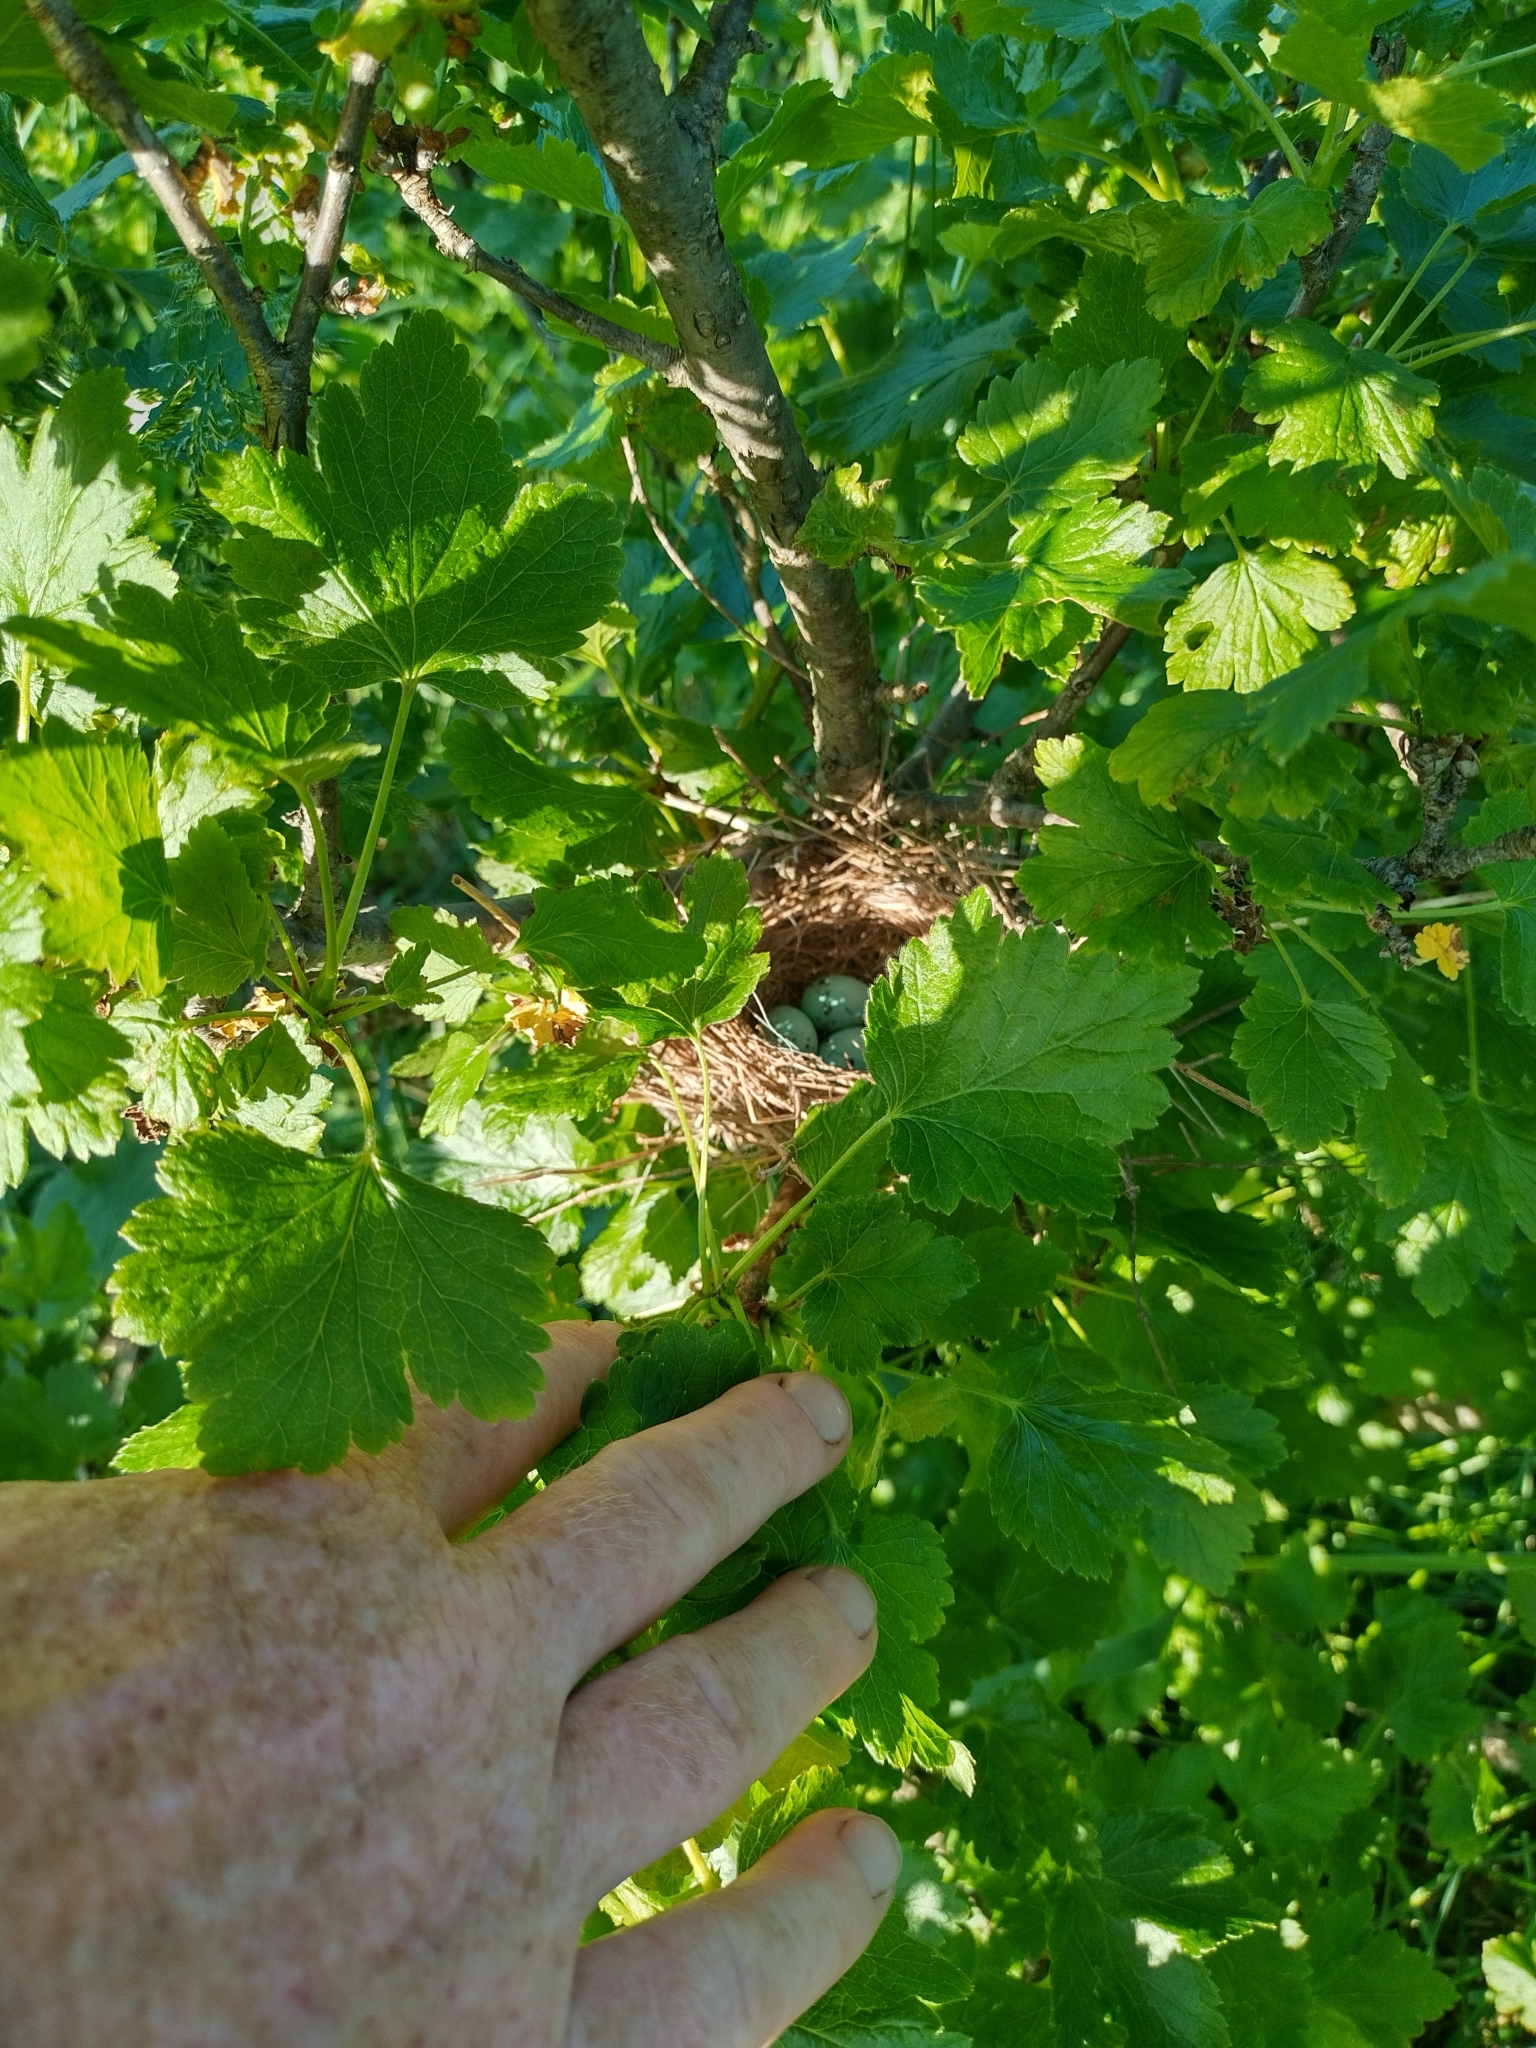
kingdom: Animalia
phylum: Chordata
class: Aves
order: Passeriformes
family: Passerellidae
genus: Spizella
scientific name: Spizella passerina
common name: Chipping sparrow
